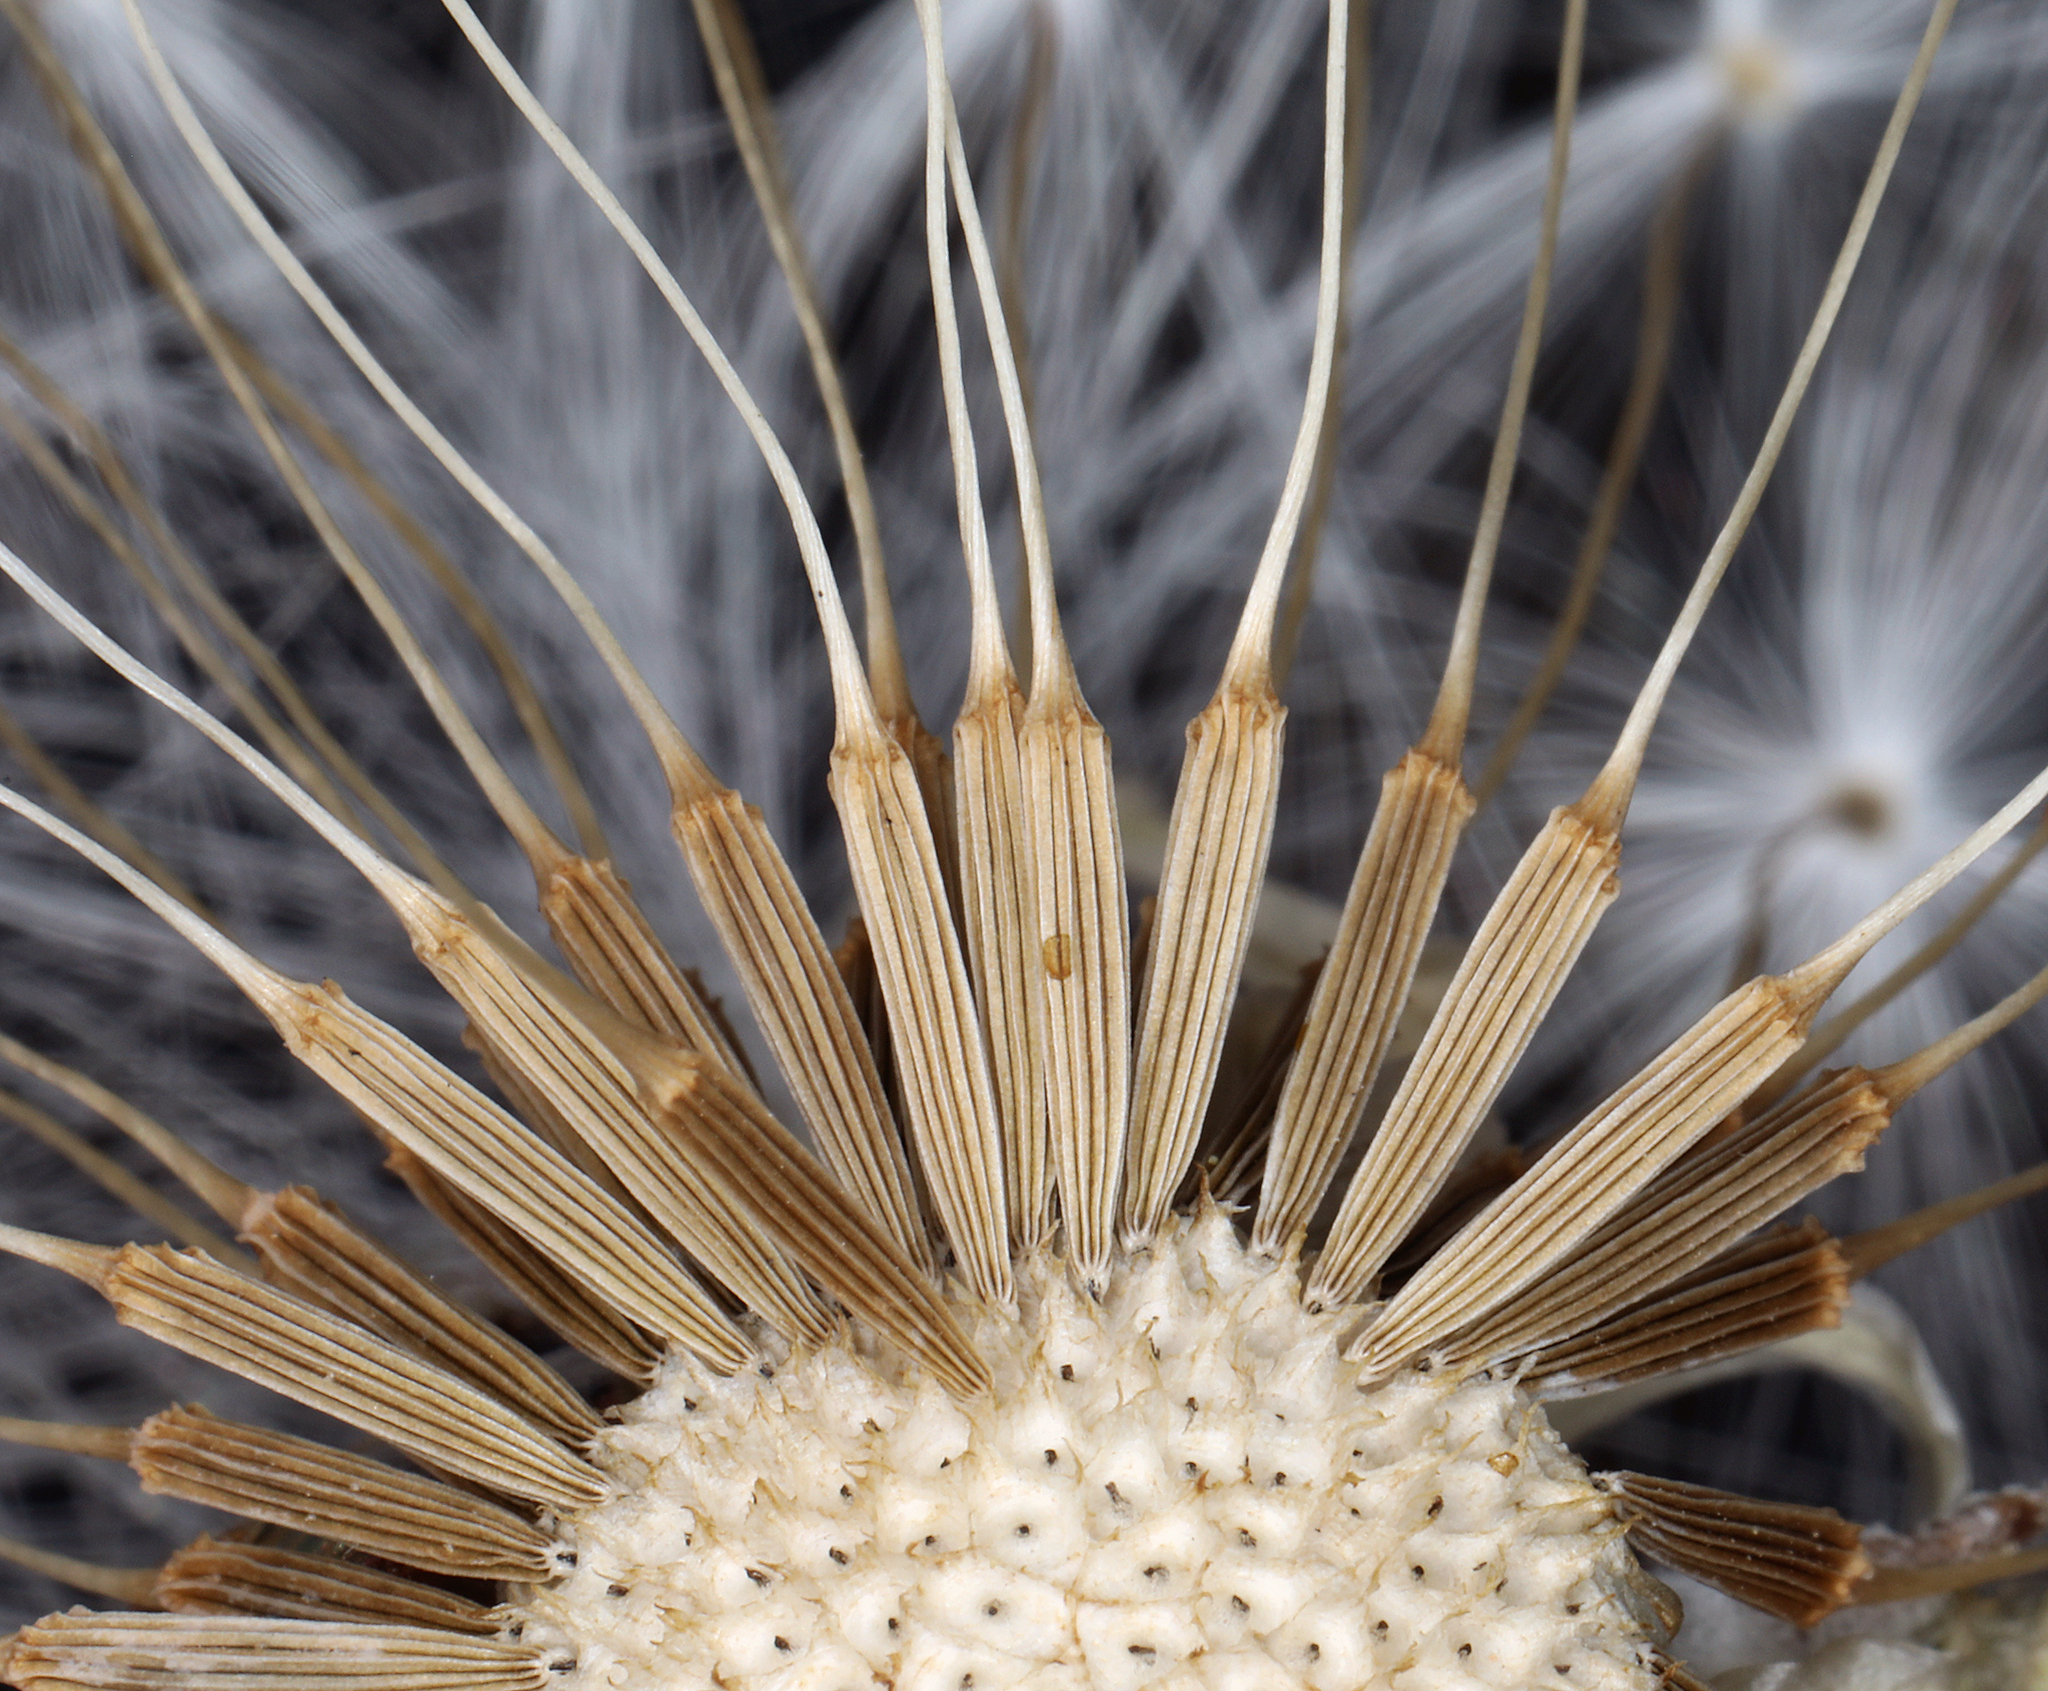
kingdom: Plantae
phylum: Tracheophyta
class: Magnoliopsida
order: Asterales
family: Asteraceae
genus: Agoseris
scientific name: Agoseris retrorsa
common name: Spearleaf agoseris
